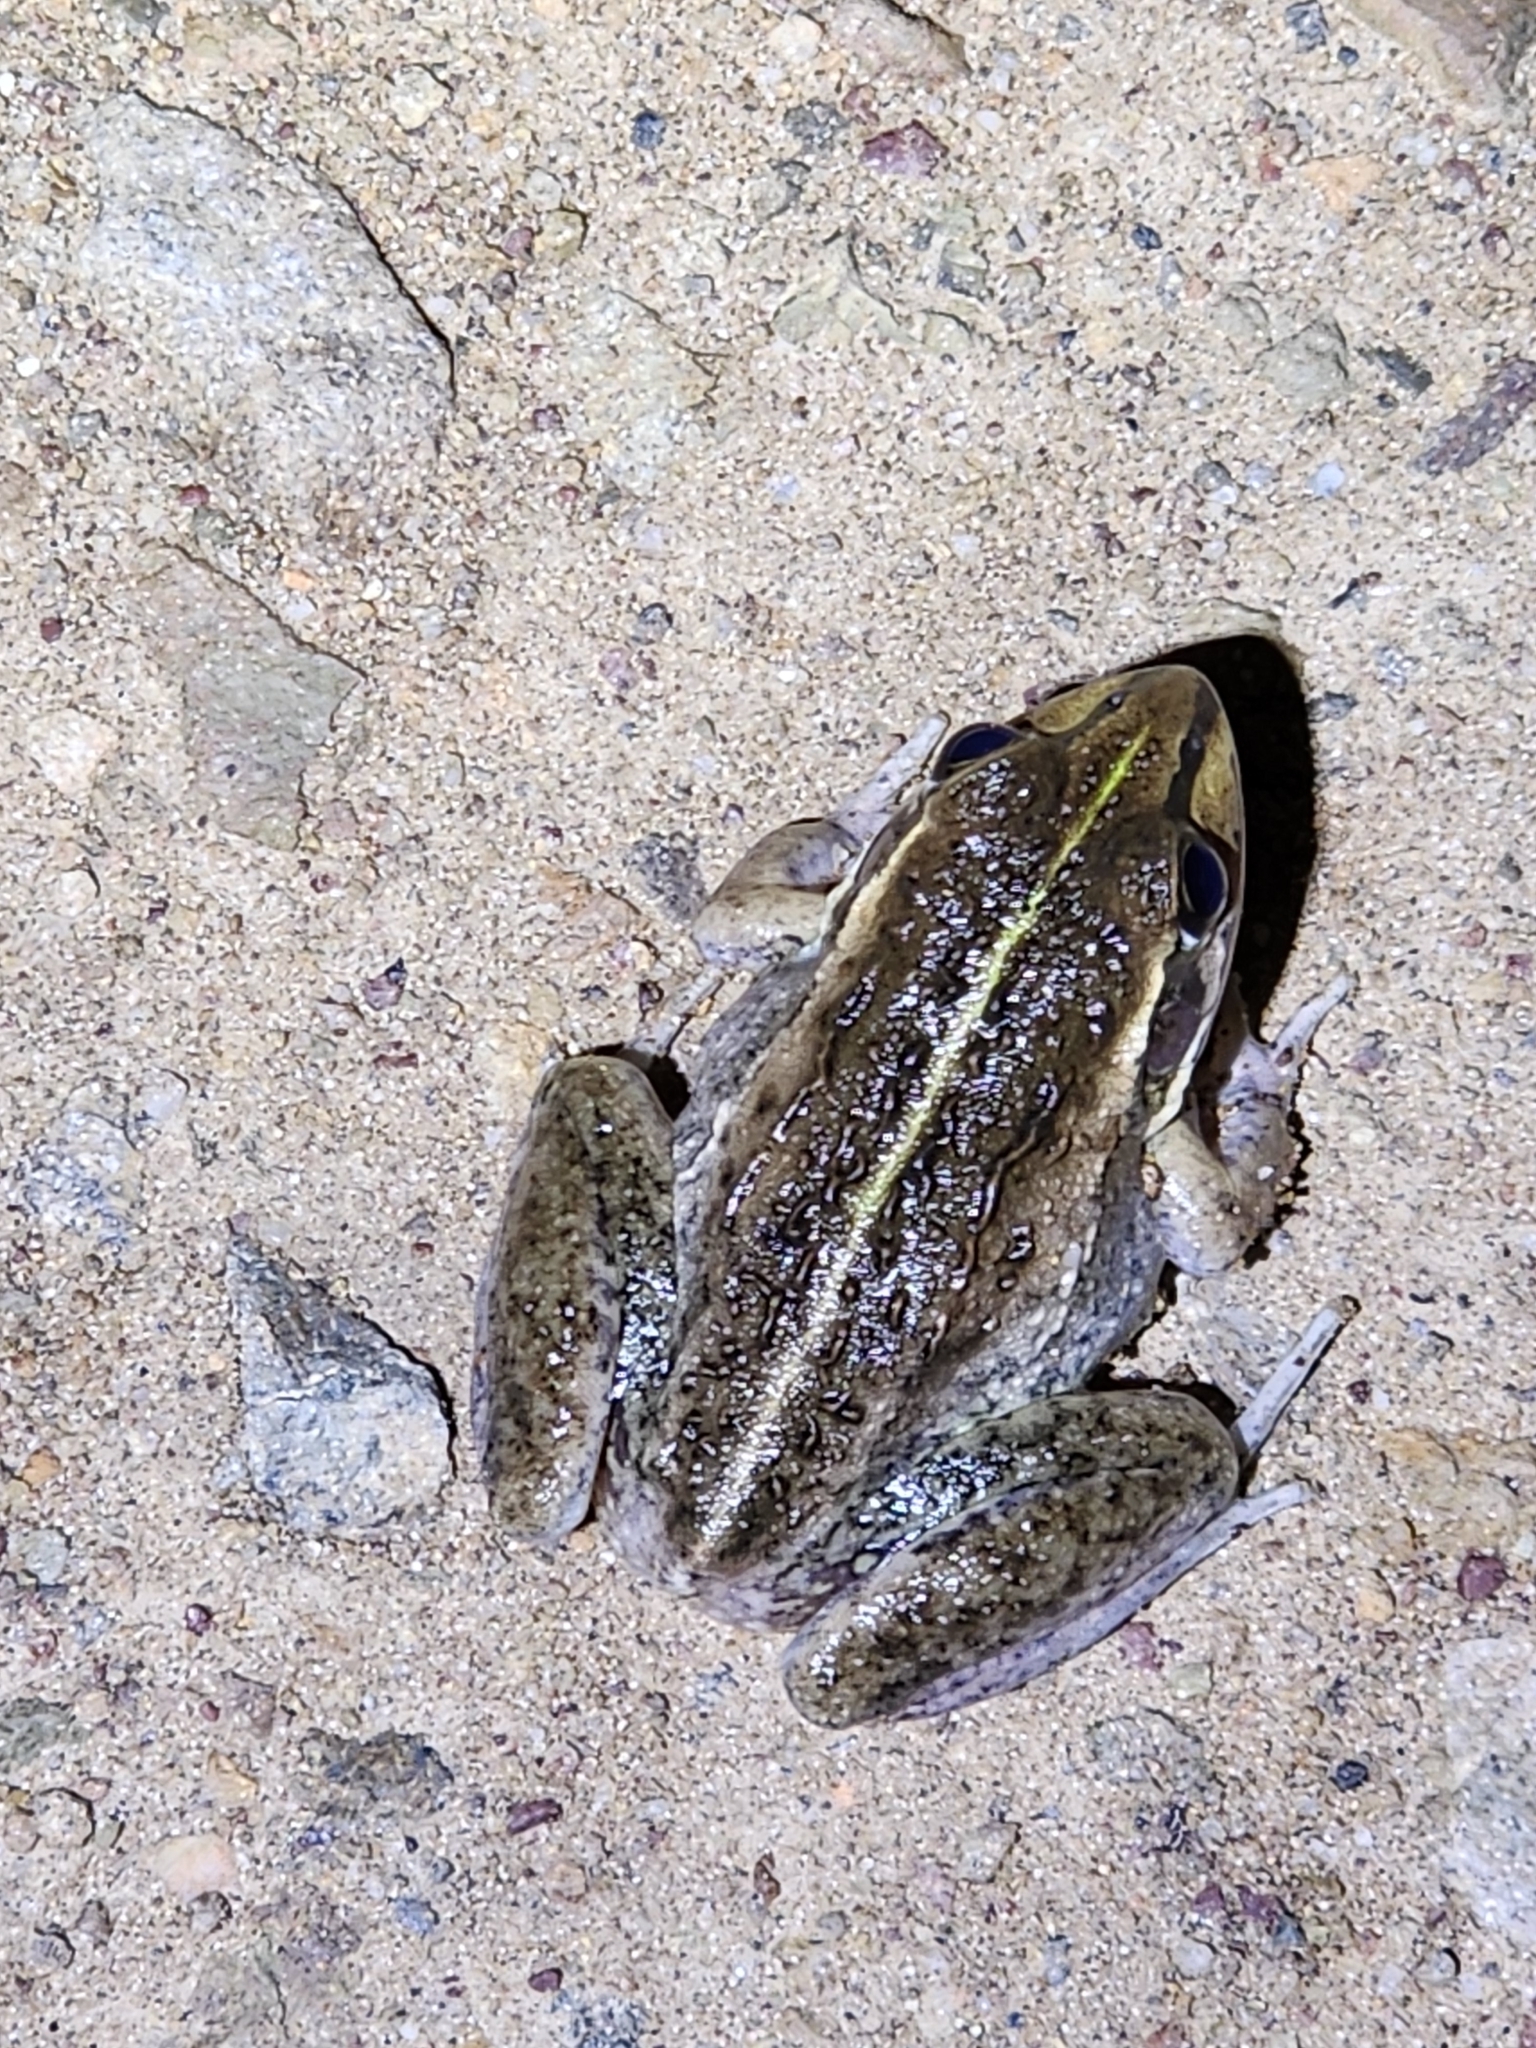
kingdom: Animalia
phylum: Chordata
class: Amphibia
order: Anura
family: Pelodryadidae
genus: Ranoidea
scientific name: Ranoidea alboguttata
